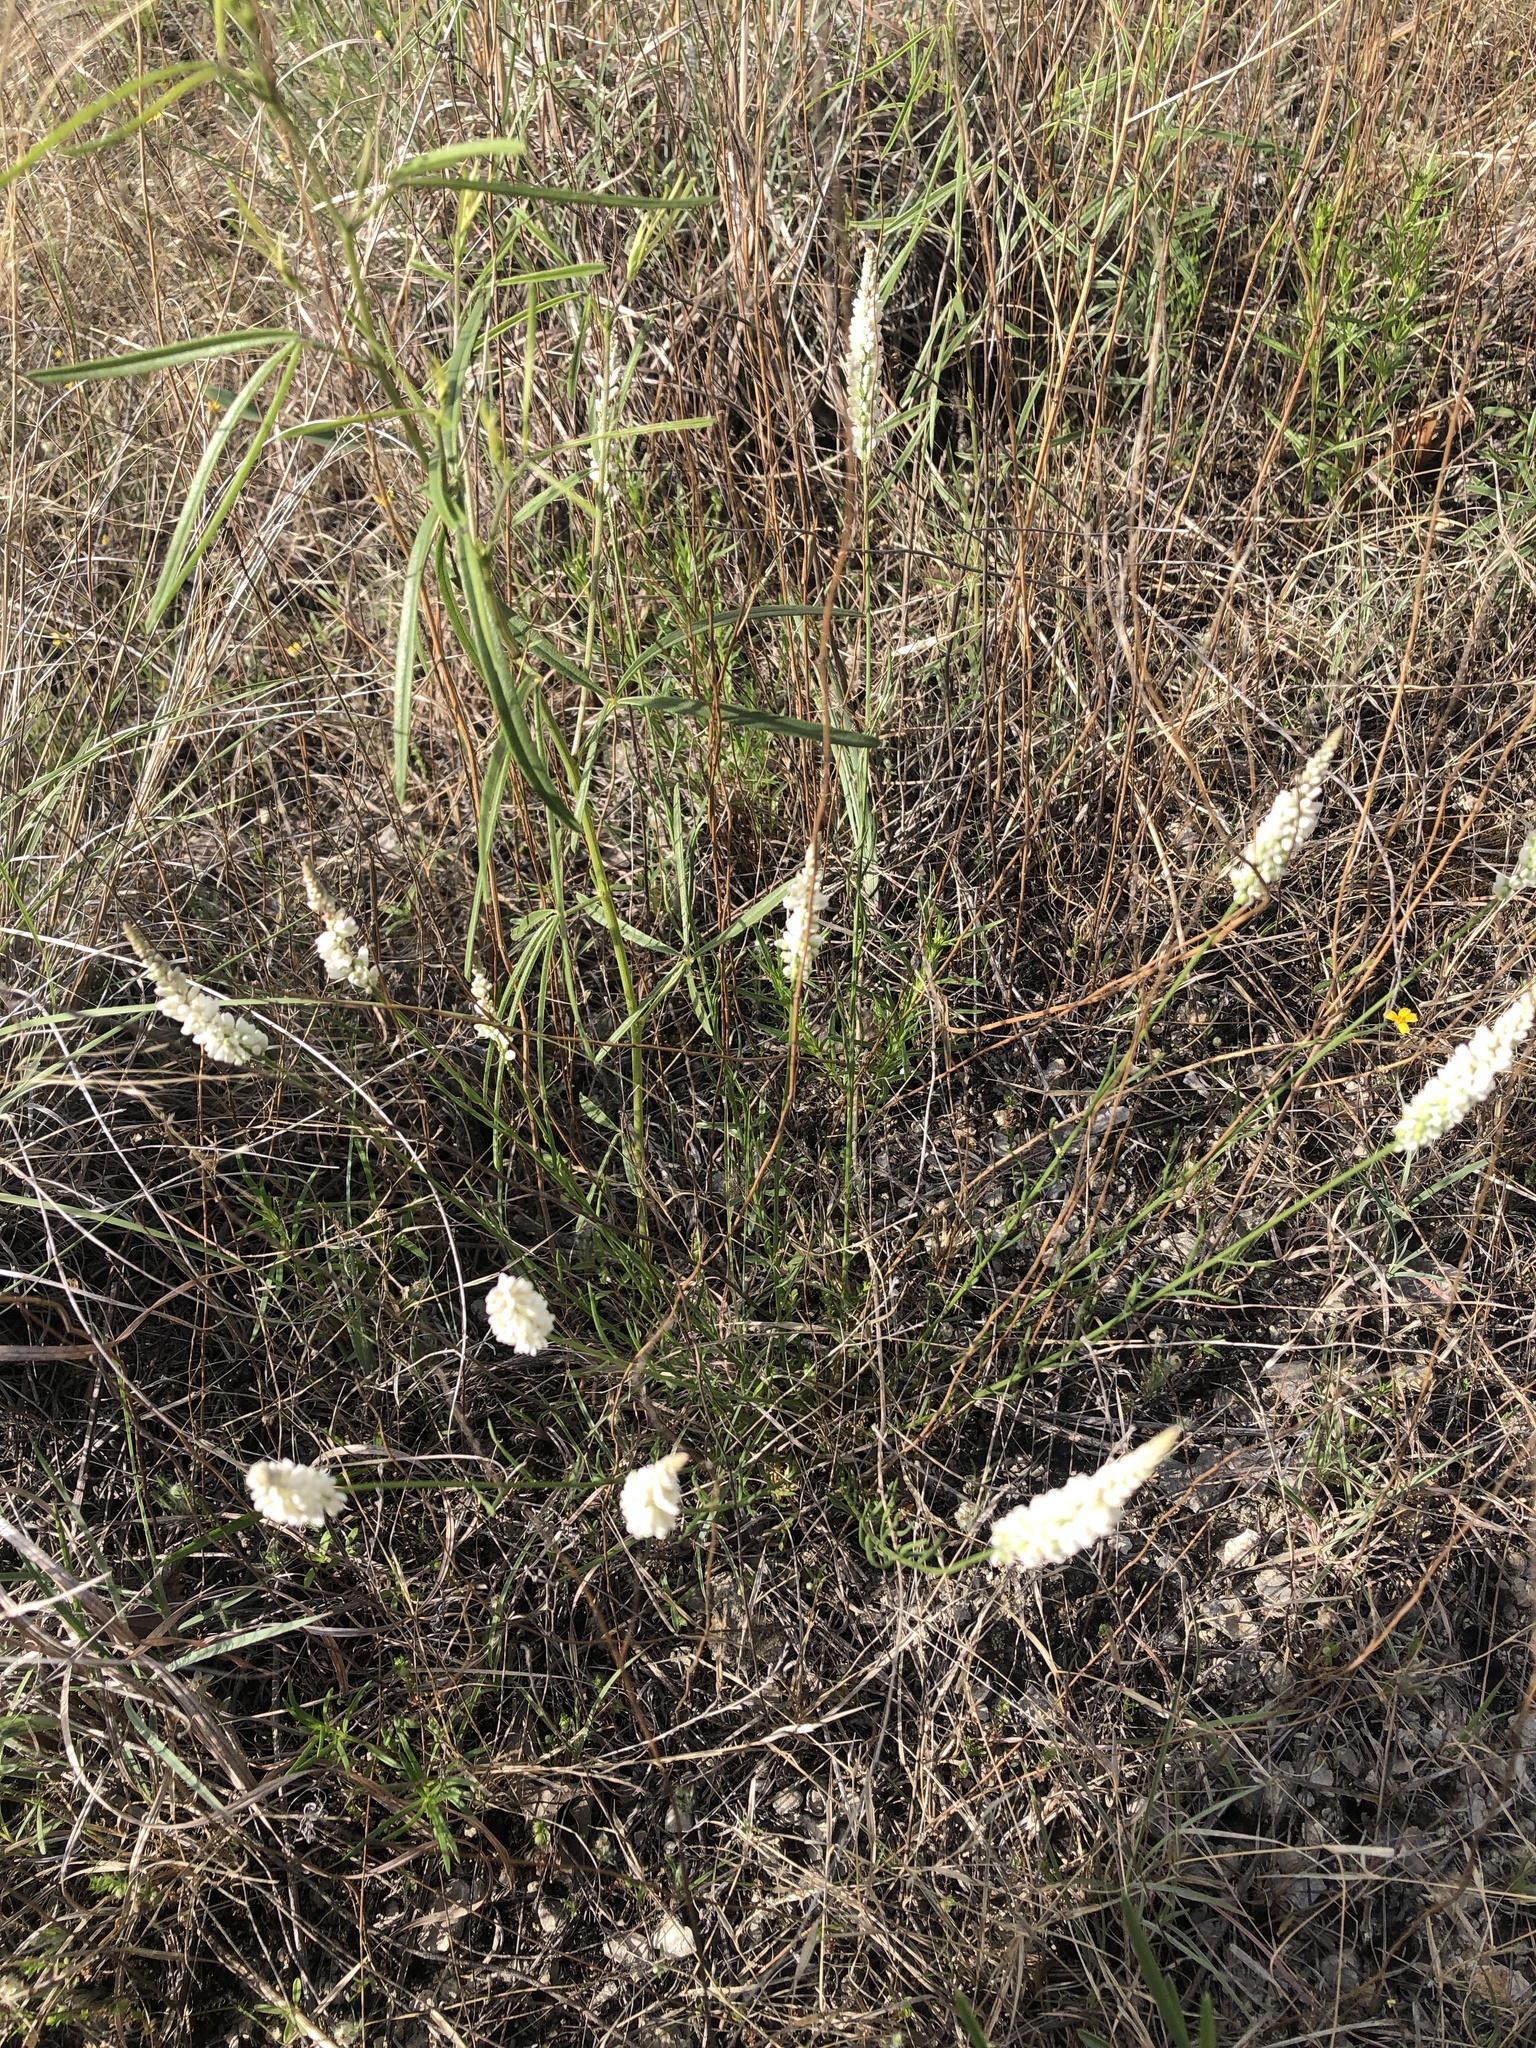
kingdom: Plantae
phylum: Tracheophyta
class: Magnoliopsida
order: Fabales
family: Polygalaceae
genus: Polygala
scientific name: Polygala alba
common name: White milkwort
